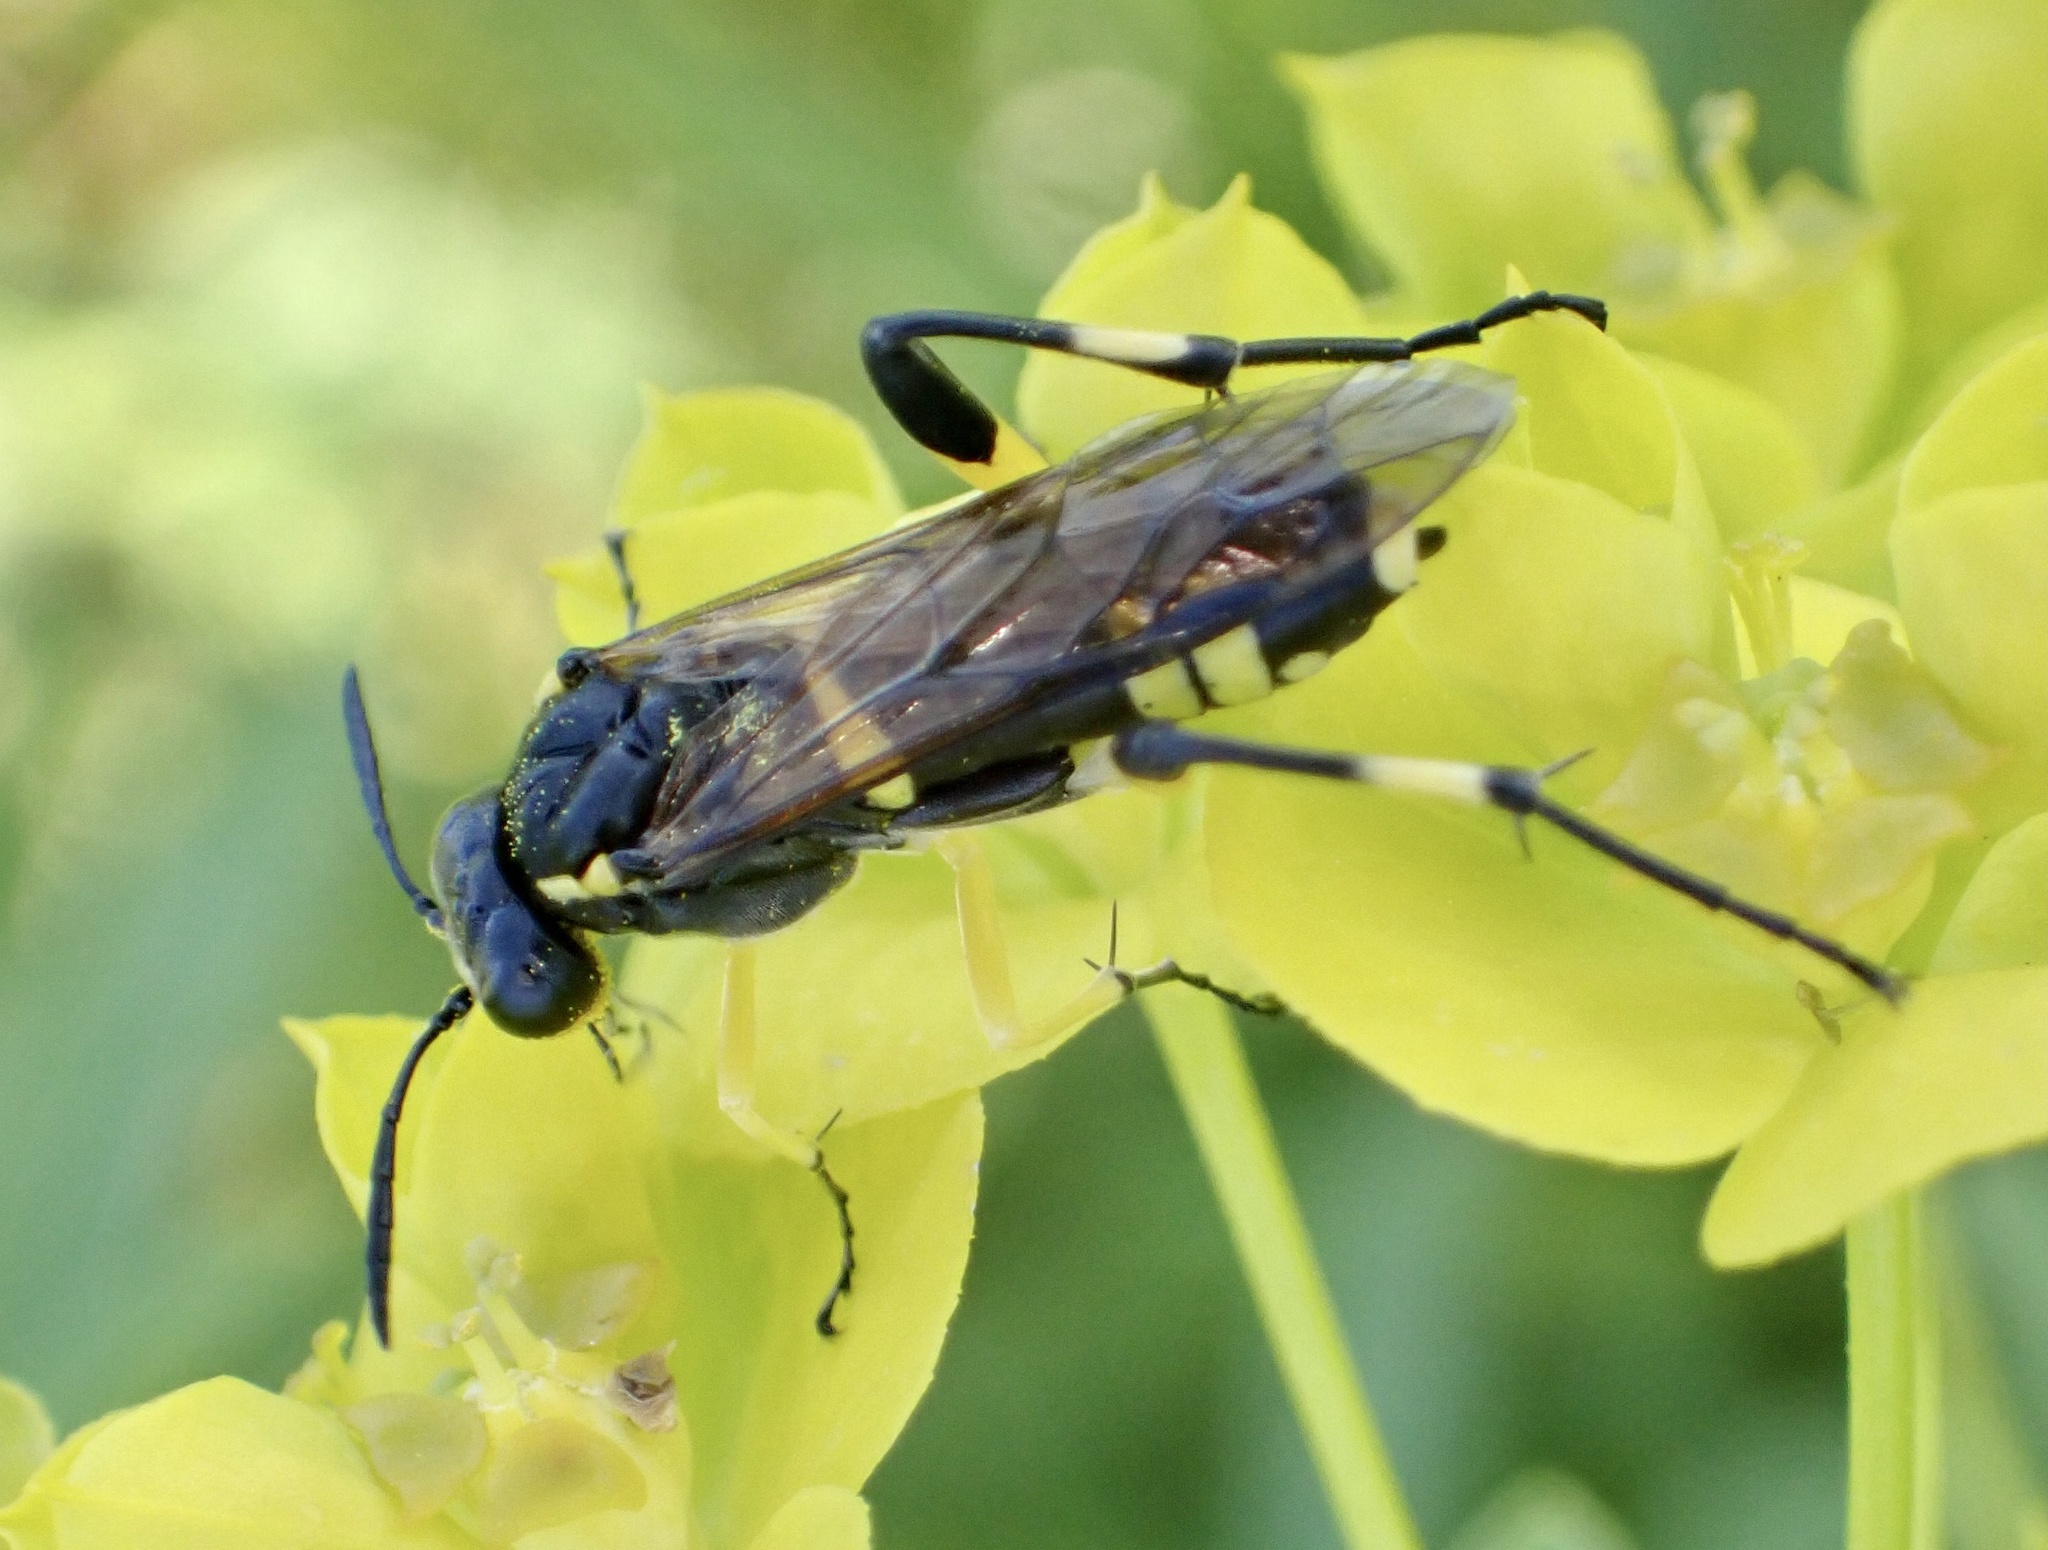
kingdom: Animalia
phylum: Arthropoda
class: Insecta
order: Hymenoptera
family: Tenthredinidae
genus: Macrophya
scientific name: Macrophya montana
